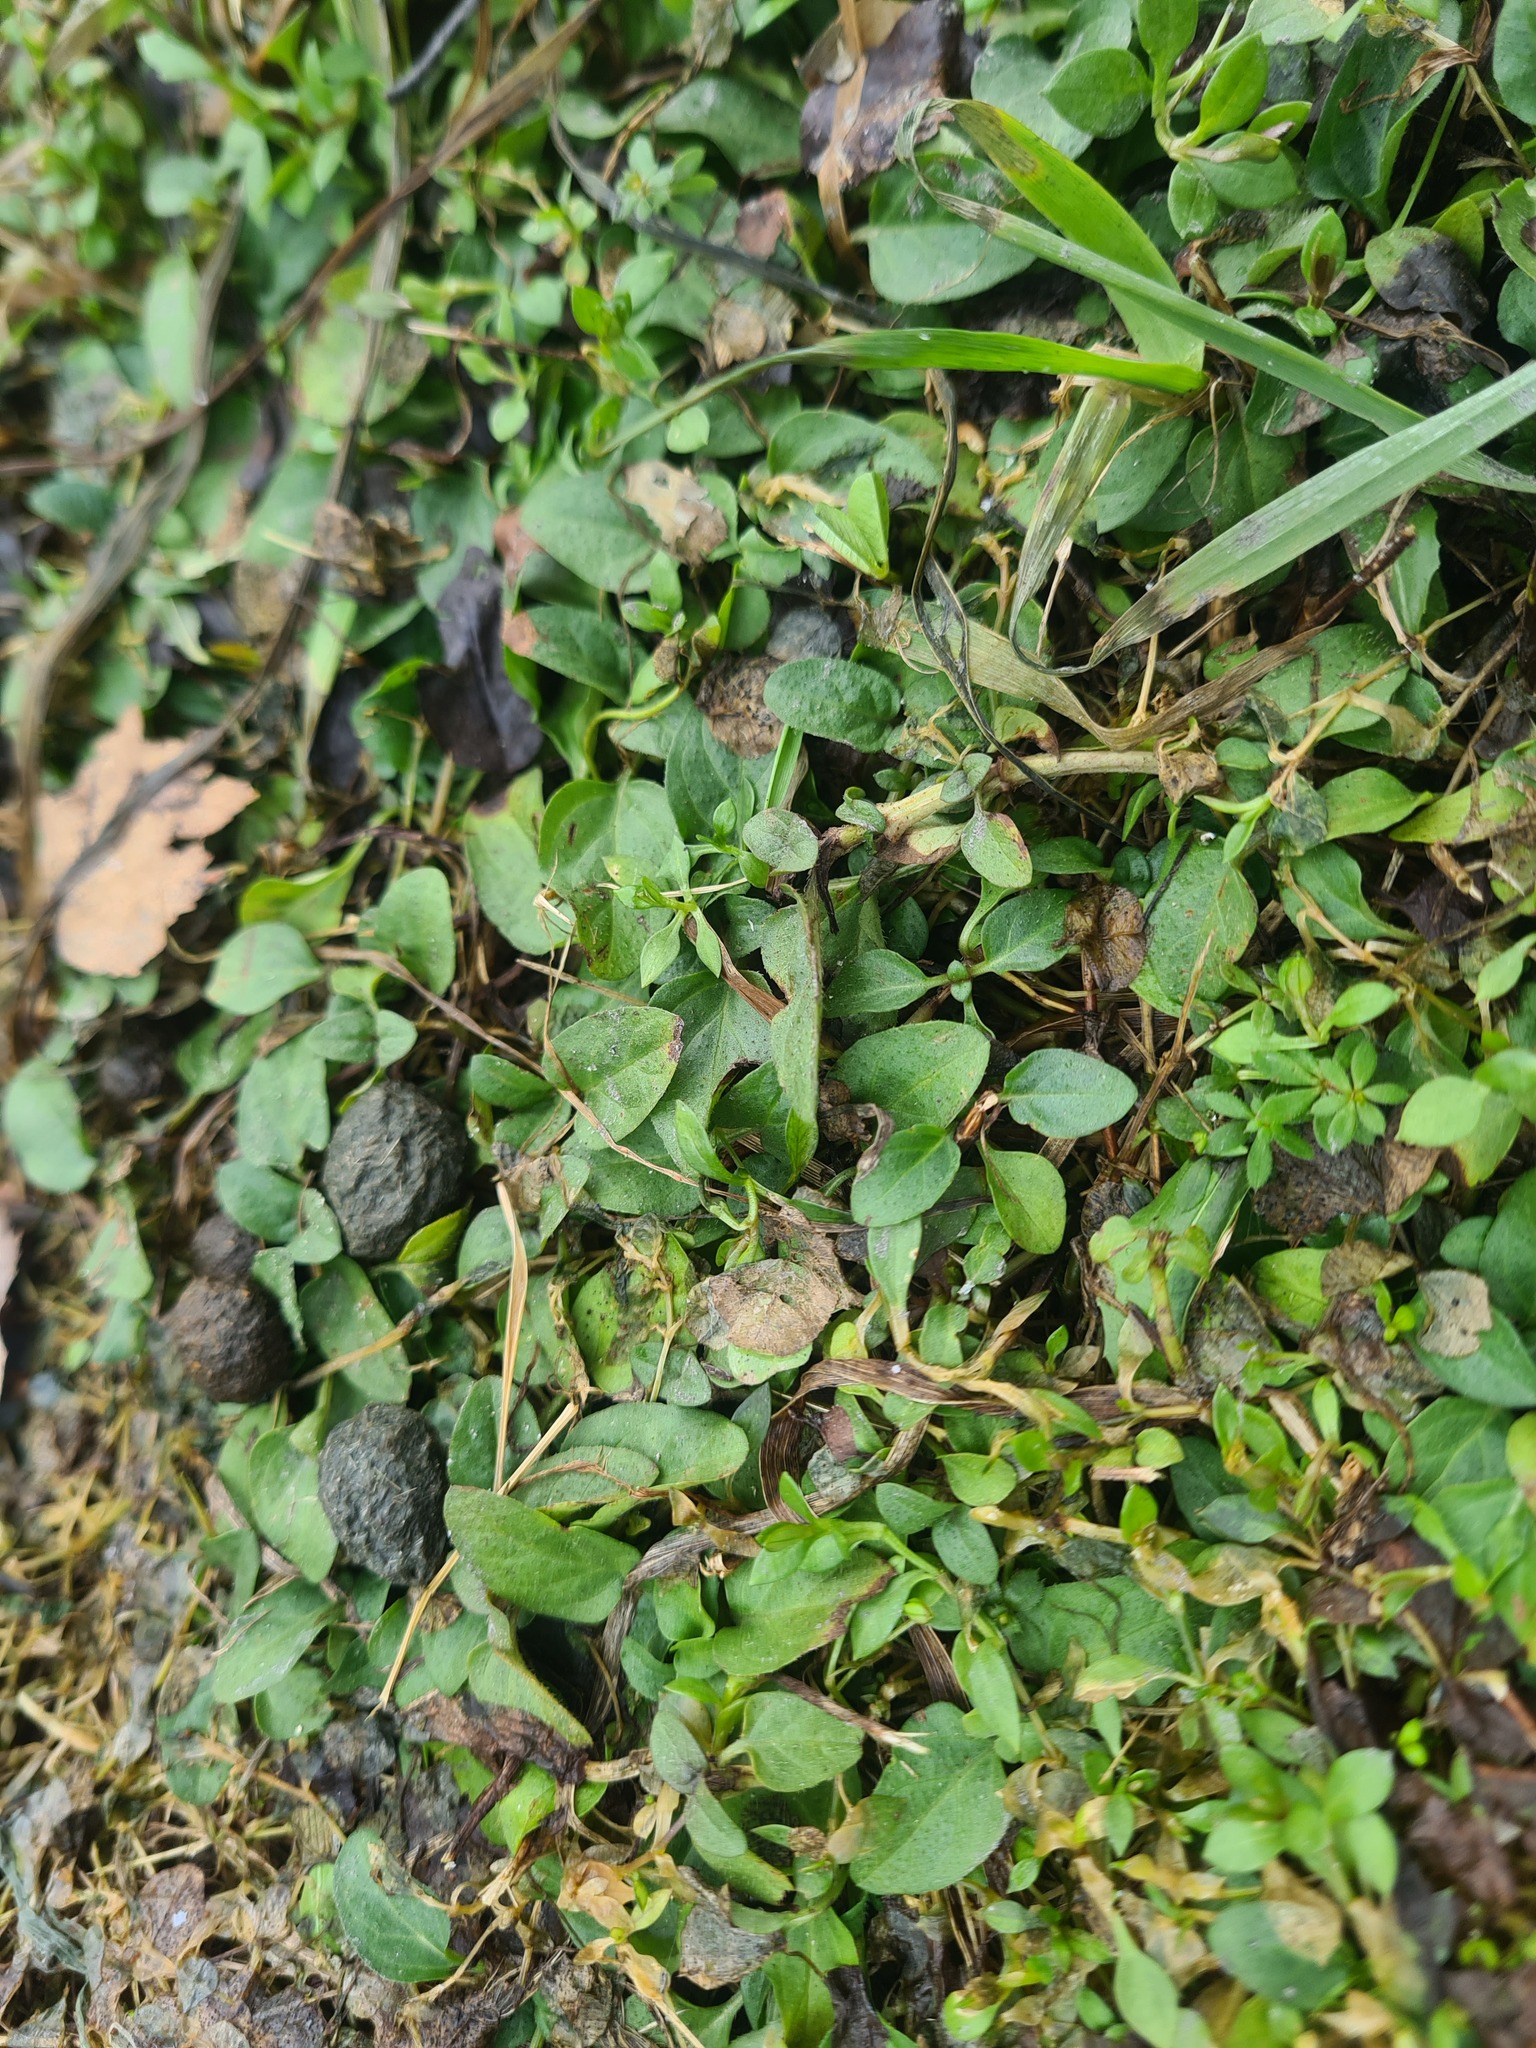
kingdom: Plantae
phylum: Tracheophyta
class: Magnoliopsida
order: Lamiales
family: Lamiaceae
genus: Prunella
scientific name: Prunella vulgaris
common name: Heal-all
